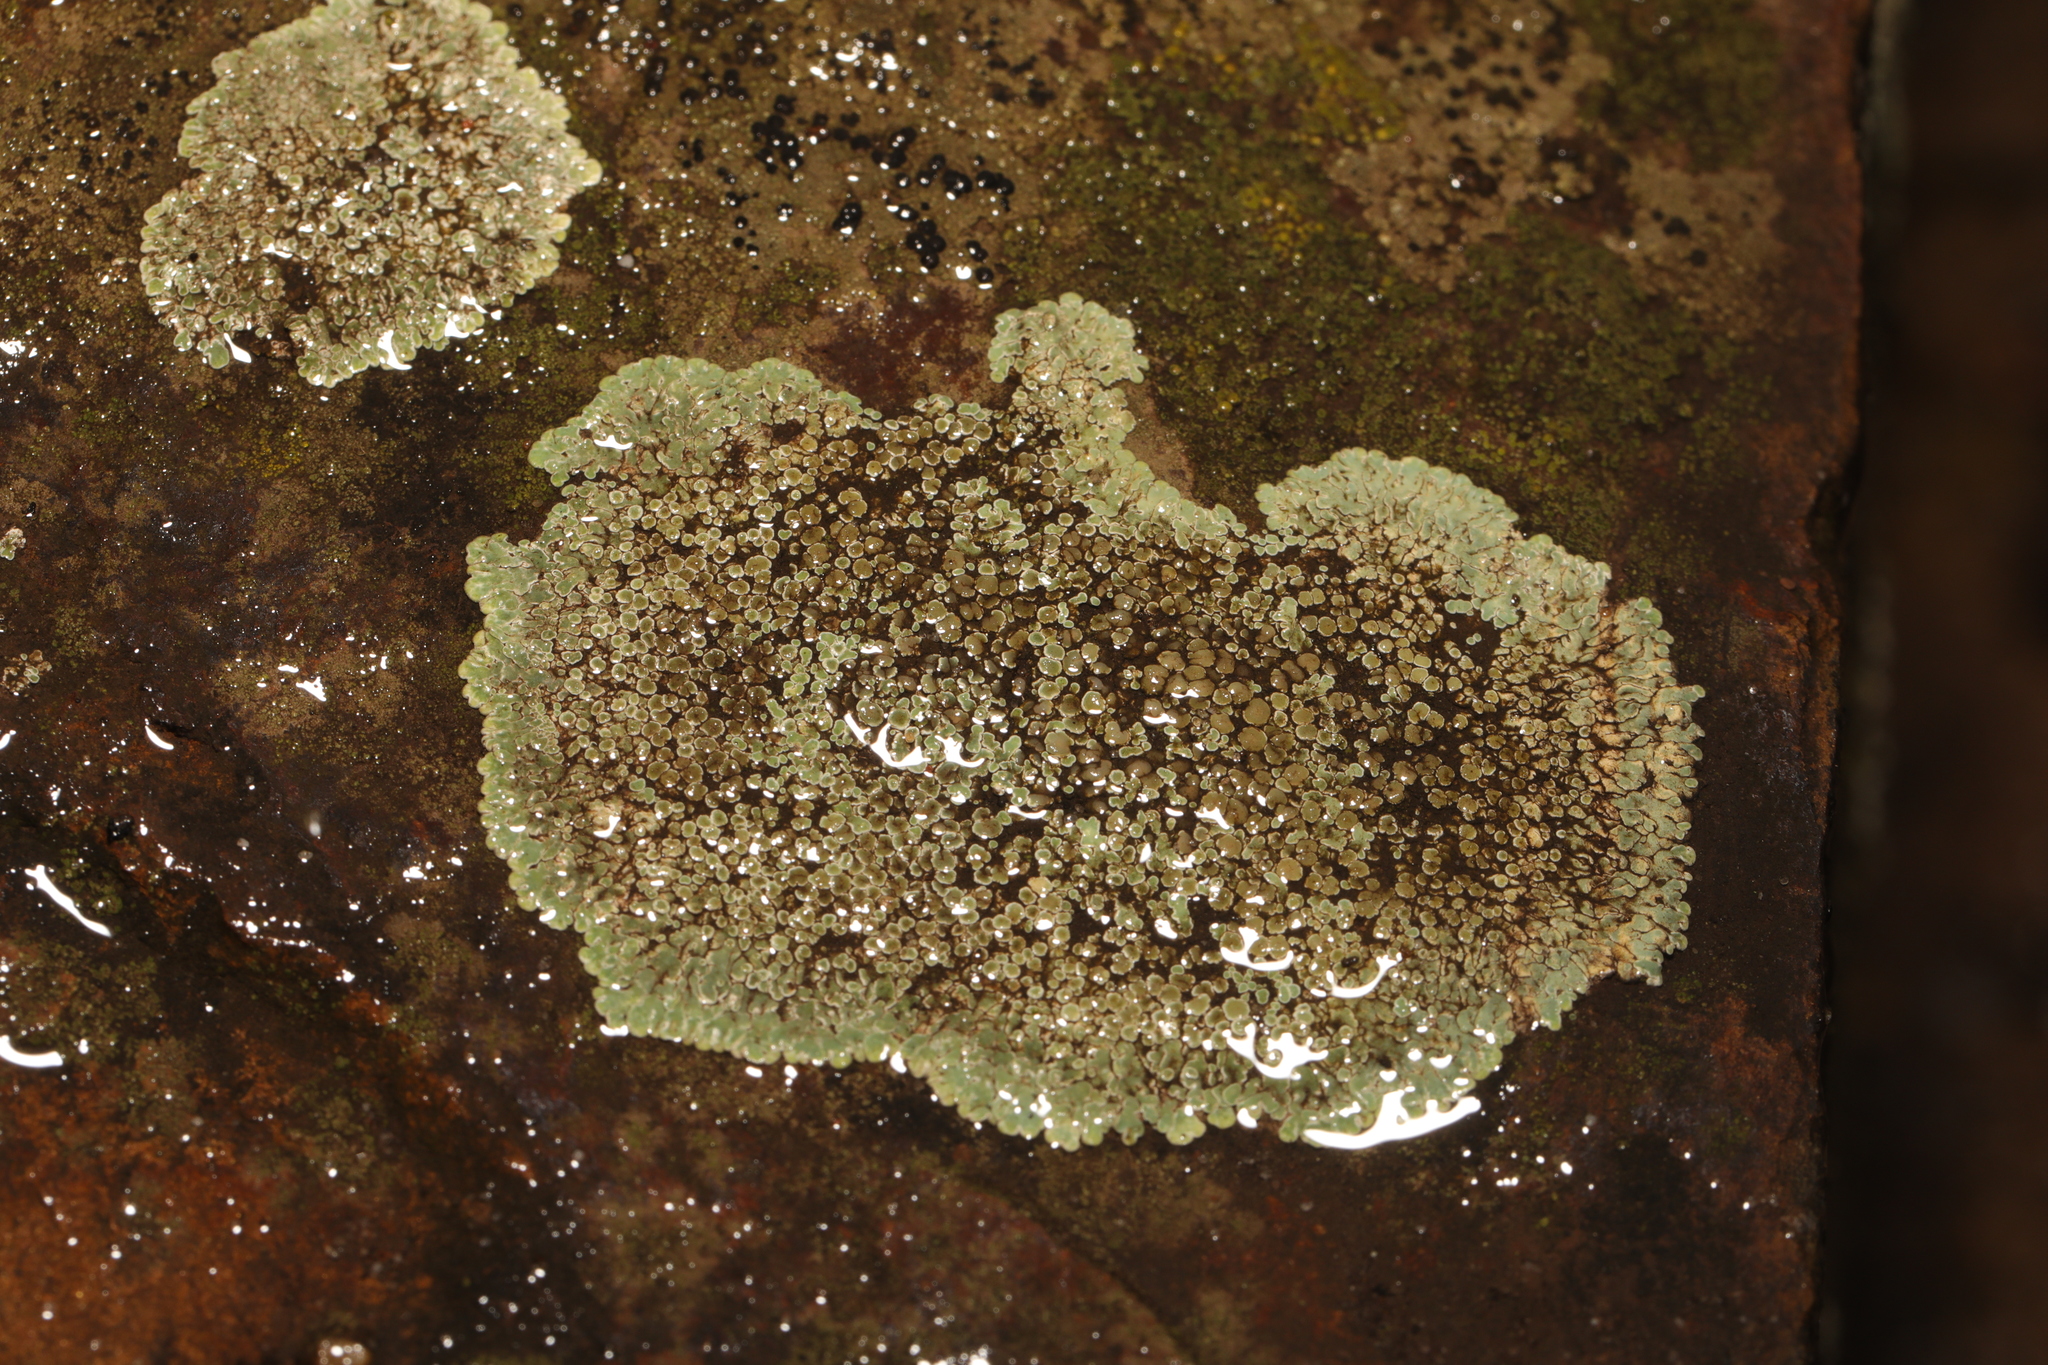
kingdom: Fungi
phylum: Ascomycota
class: Lecanoromycetes
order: Lecanorales
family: Lecanoraceae
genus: Protoparmeliopsis
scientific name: Protoparmeliopsis muralis
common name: Stonewall rim lichen
